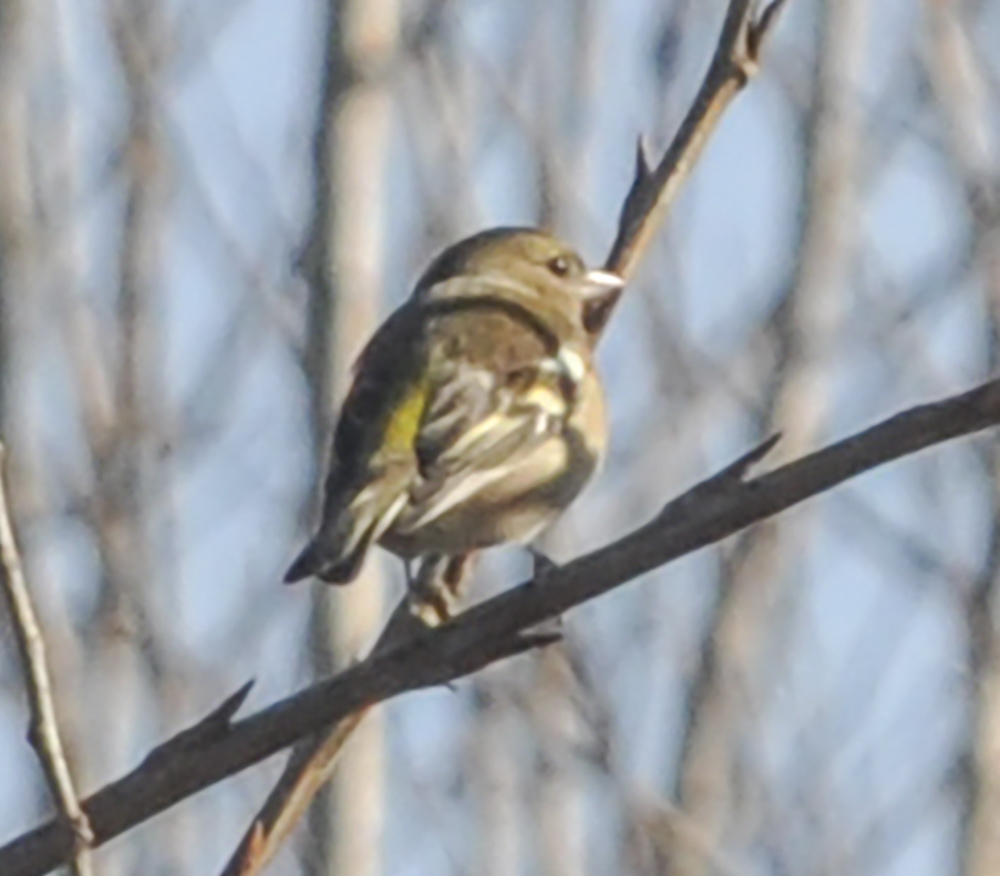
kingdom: Animalia
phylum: Chordata
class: Aves
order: Passeriformes
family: Fringillidae
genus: Fringilla
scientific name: Fringilla coelebs
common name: Common chaffinch
